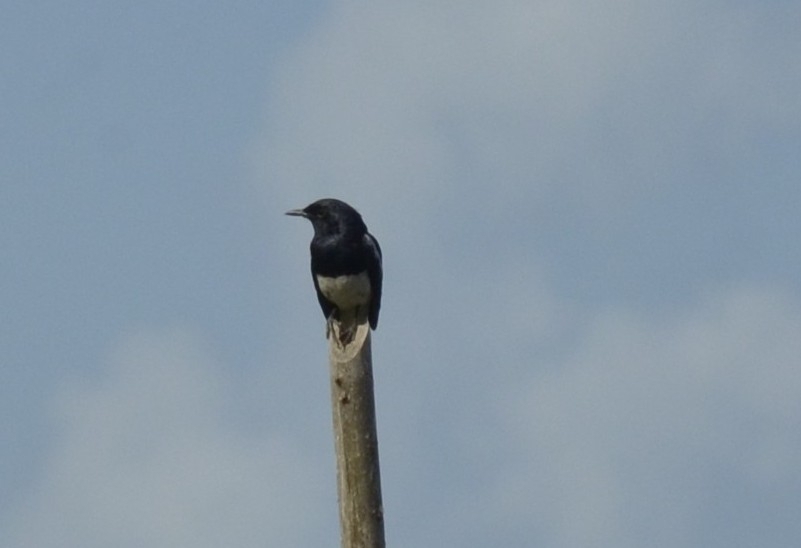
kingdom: Animalia
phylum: Chordata
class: Aves
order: Passeriformes
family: Muscicapidae
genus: Copsychus
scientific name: Copsychus saularis
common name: Oriental magpie-robin
